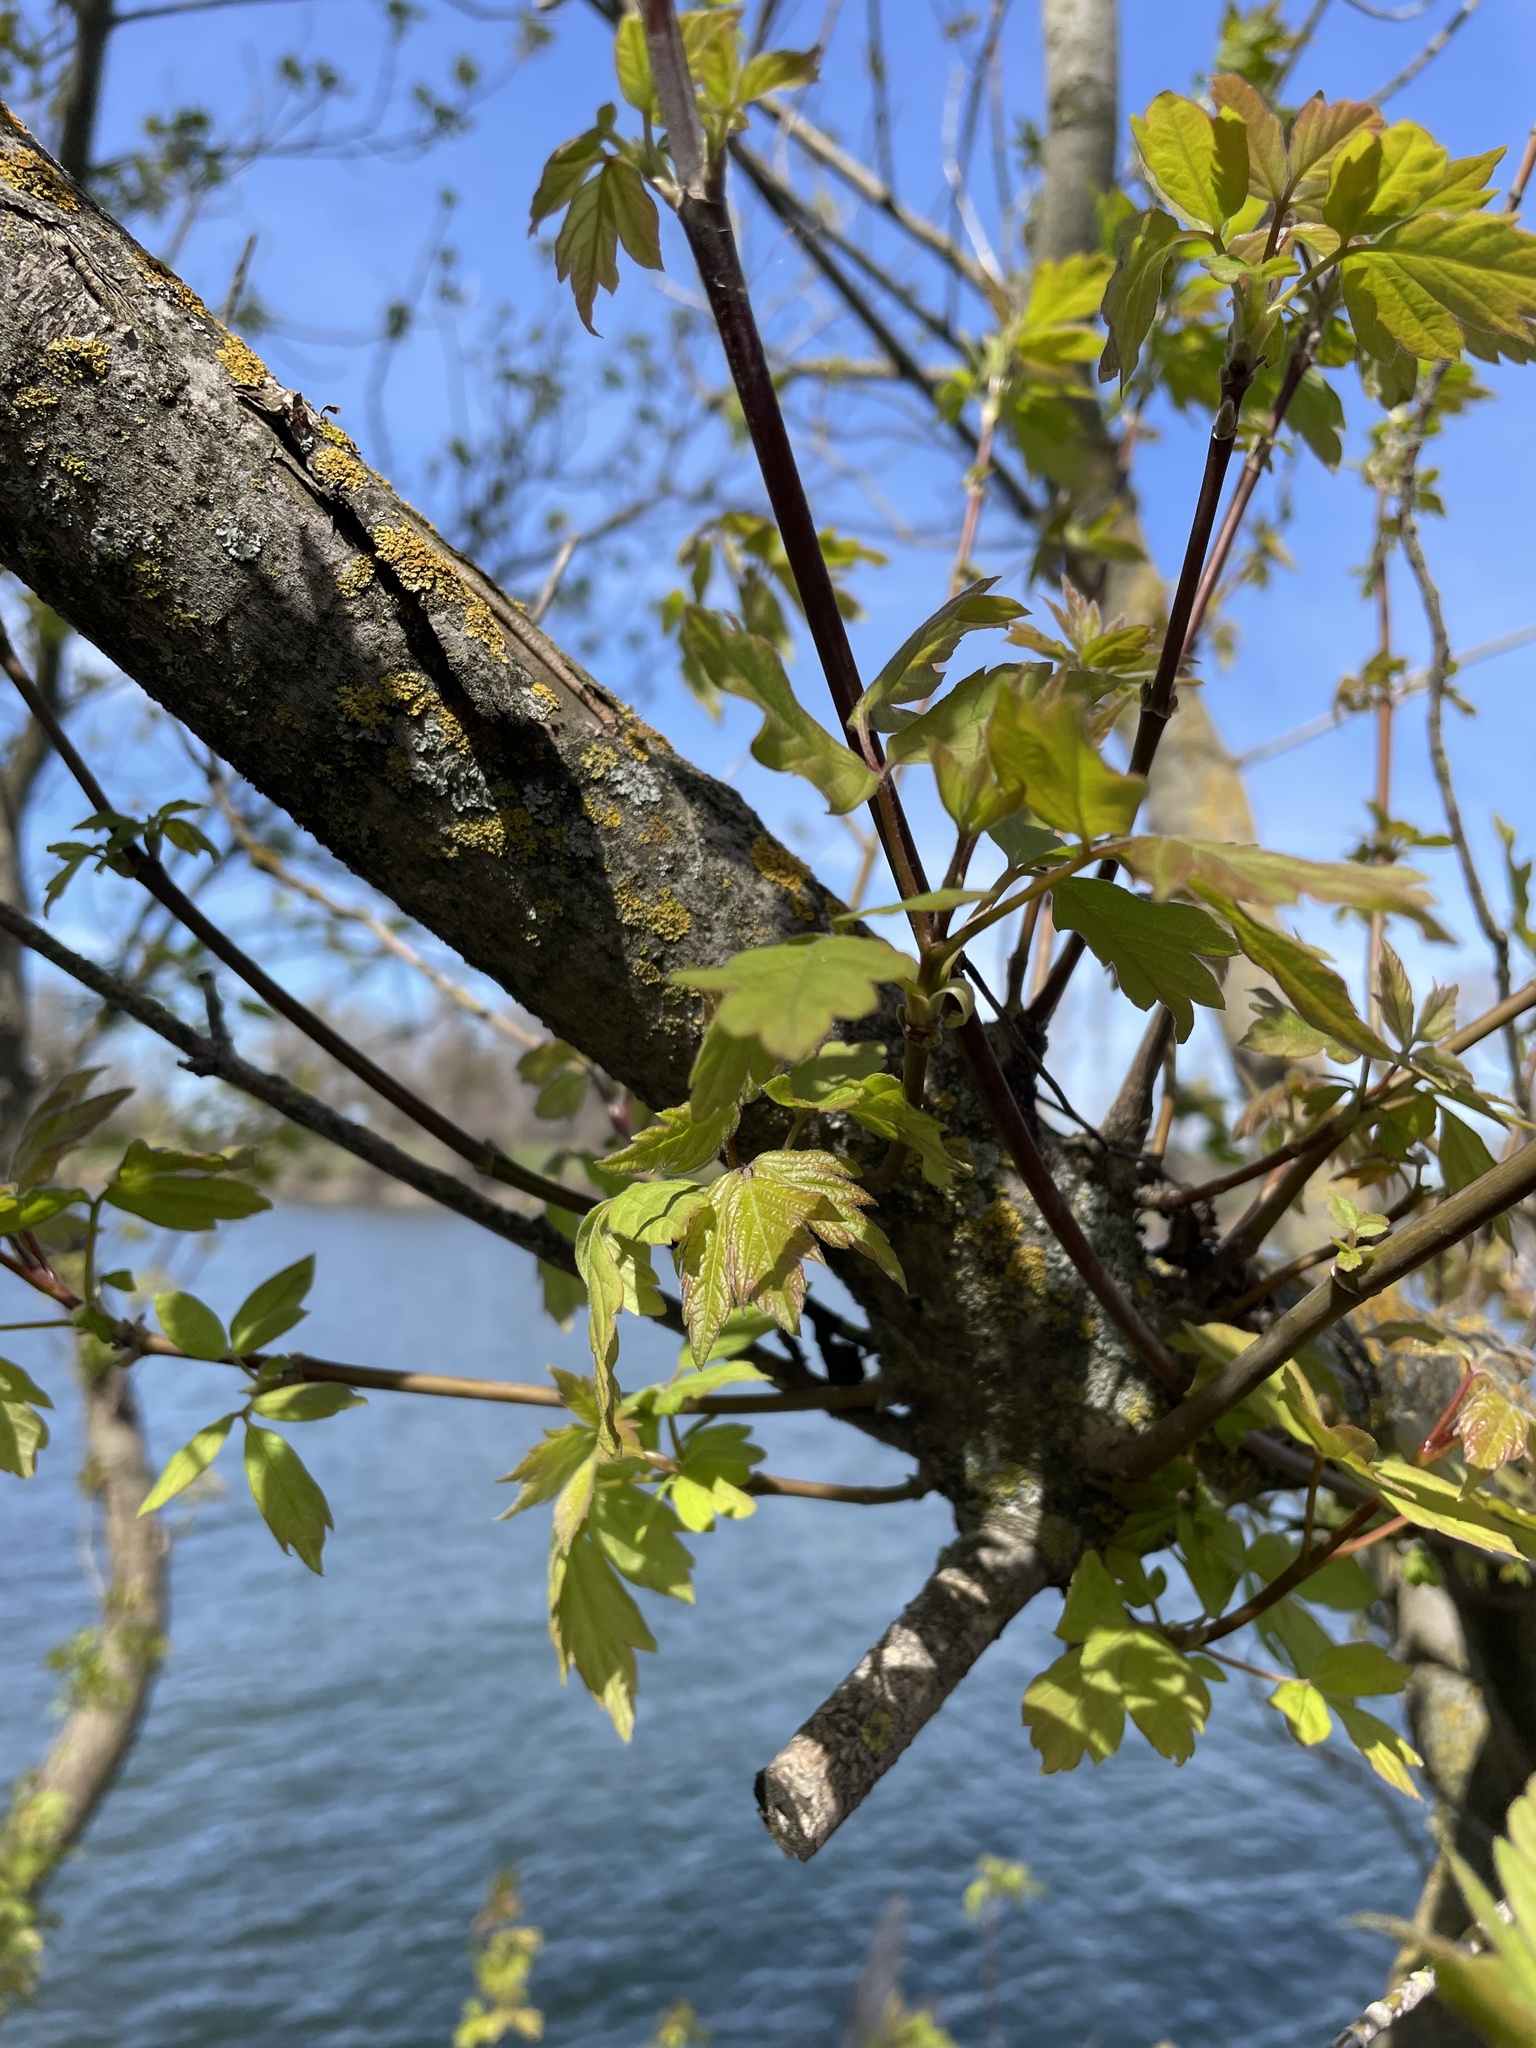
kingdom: Plantae
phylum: Tracheophyta
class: Magnoliopsida
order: Sapindales
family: Sapindaceae
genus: Acer
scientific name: Acer negundo
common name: Ashleaf maple
